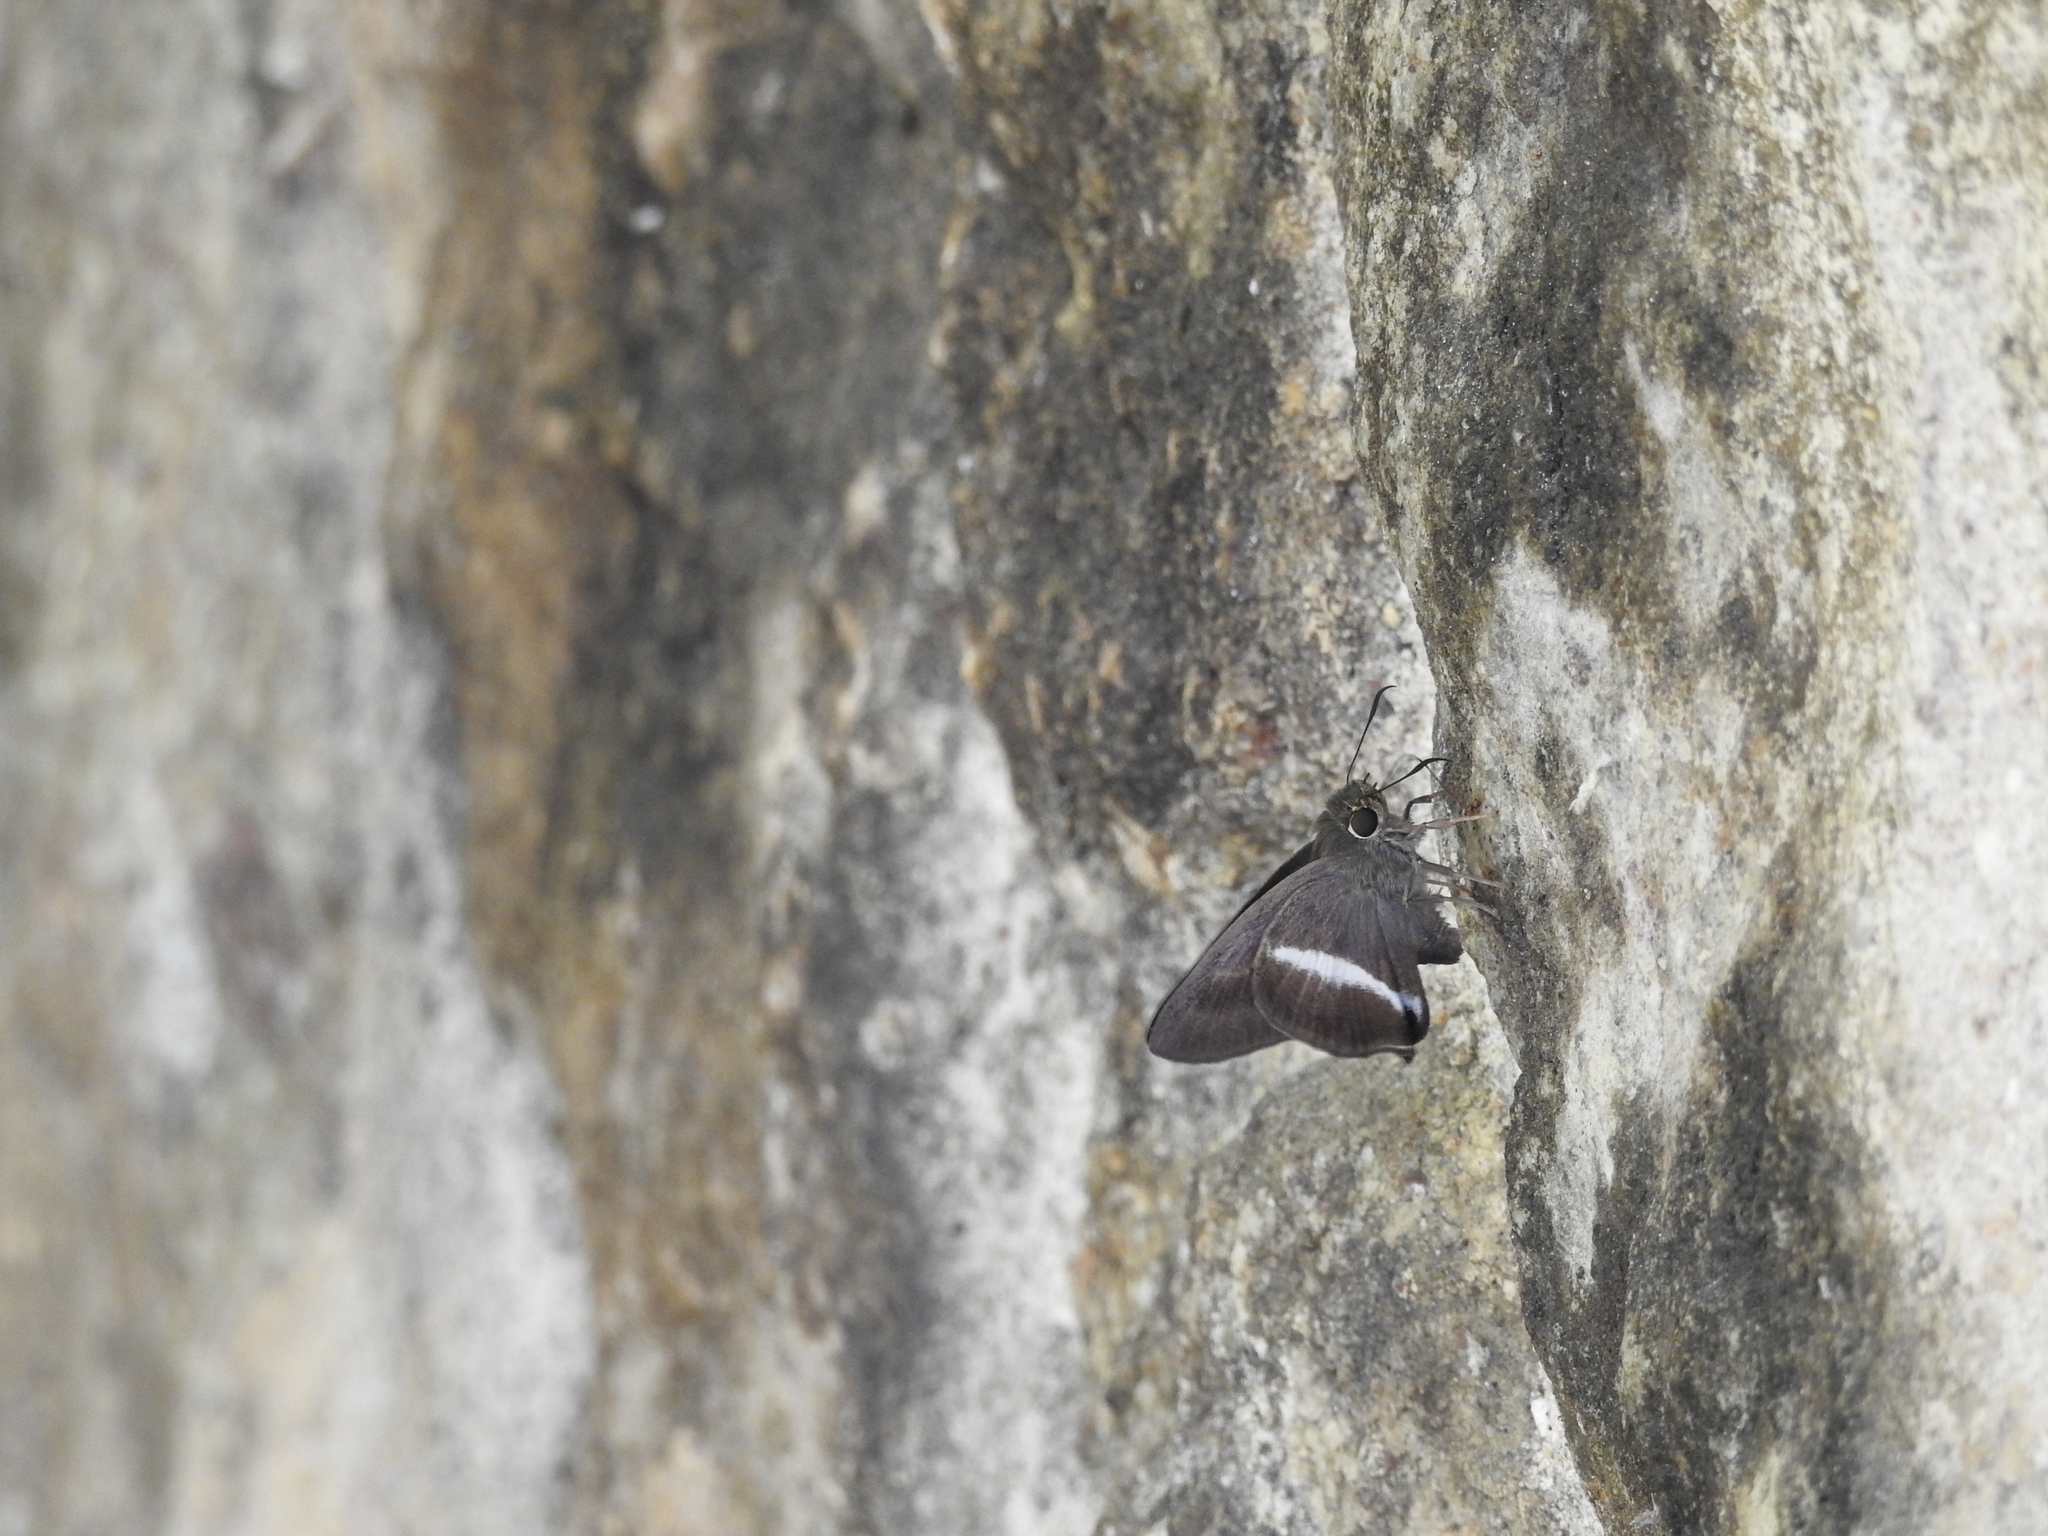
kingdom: Animalia
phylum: Arthropoda
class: Insecta
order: Lepidoptera
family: Hesperiidae
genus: Hasora
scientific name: Hasora taminatus
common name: White banded awl
